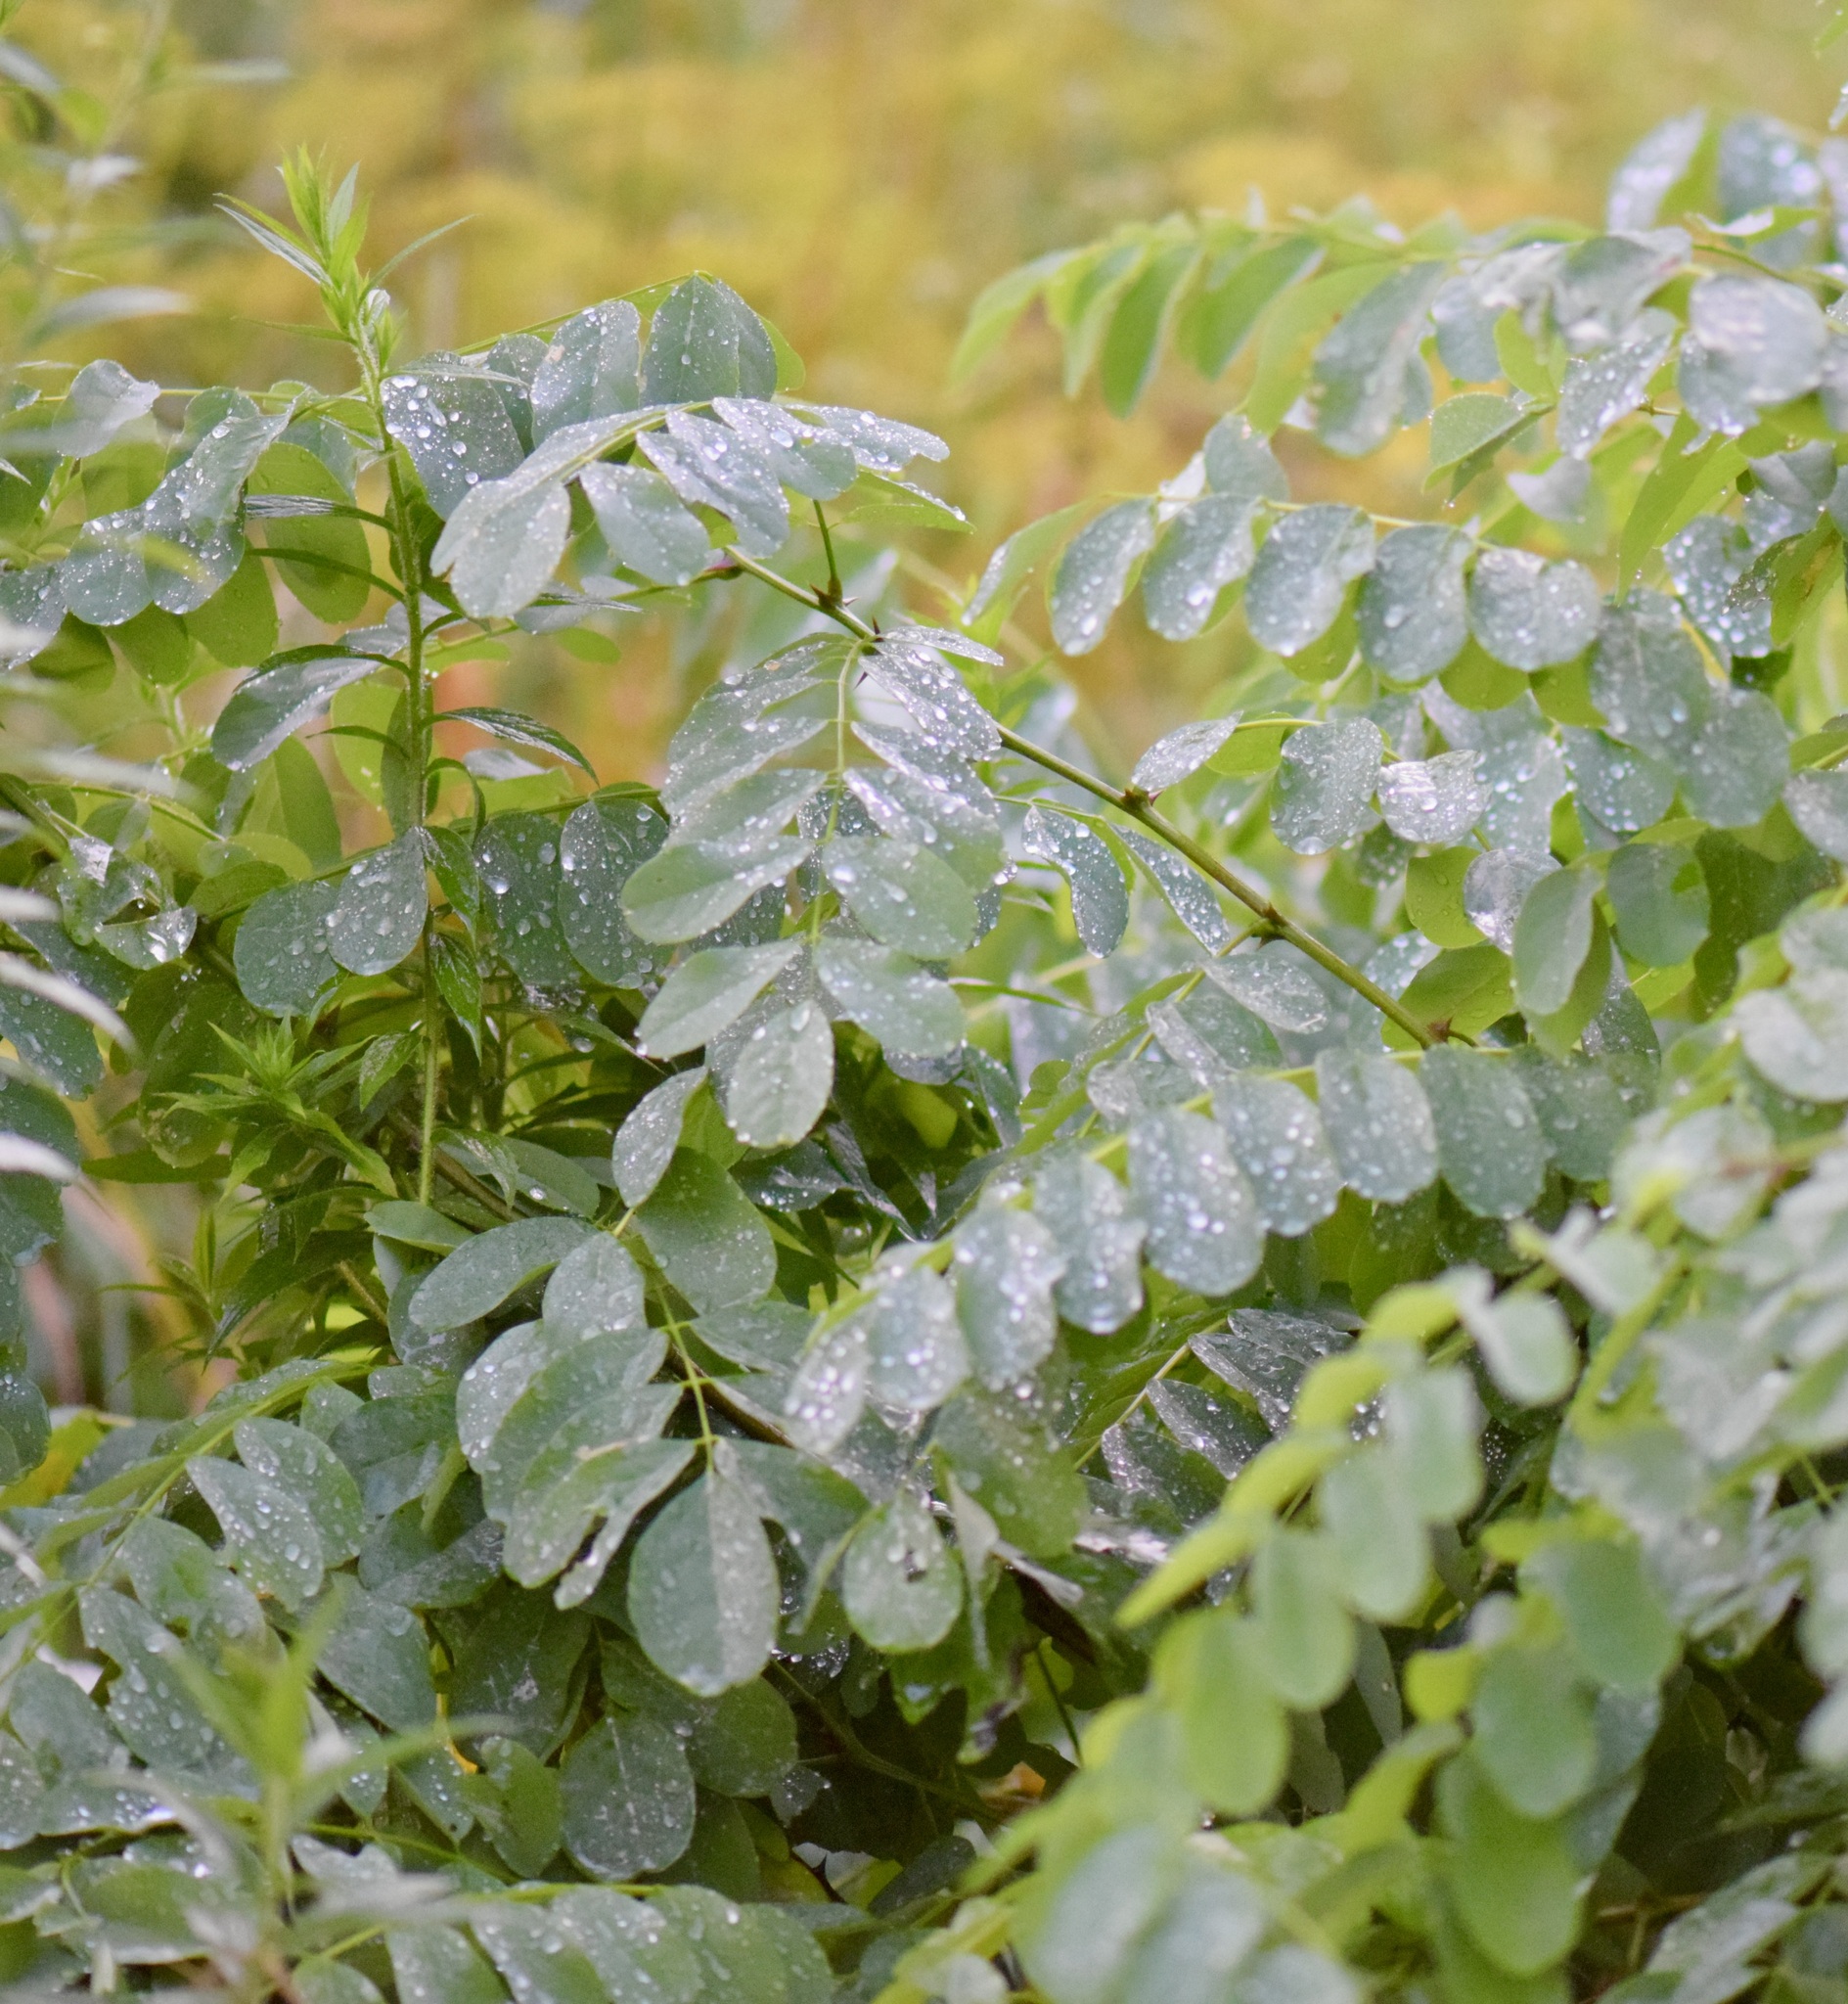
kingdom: Plantae
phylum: Tracheophyta
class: Magnoliopsida
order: Fabales
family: Fabaceae
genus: Robinia
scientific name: Robinia pseudoacacia
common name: Black locust
